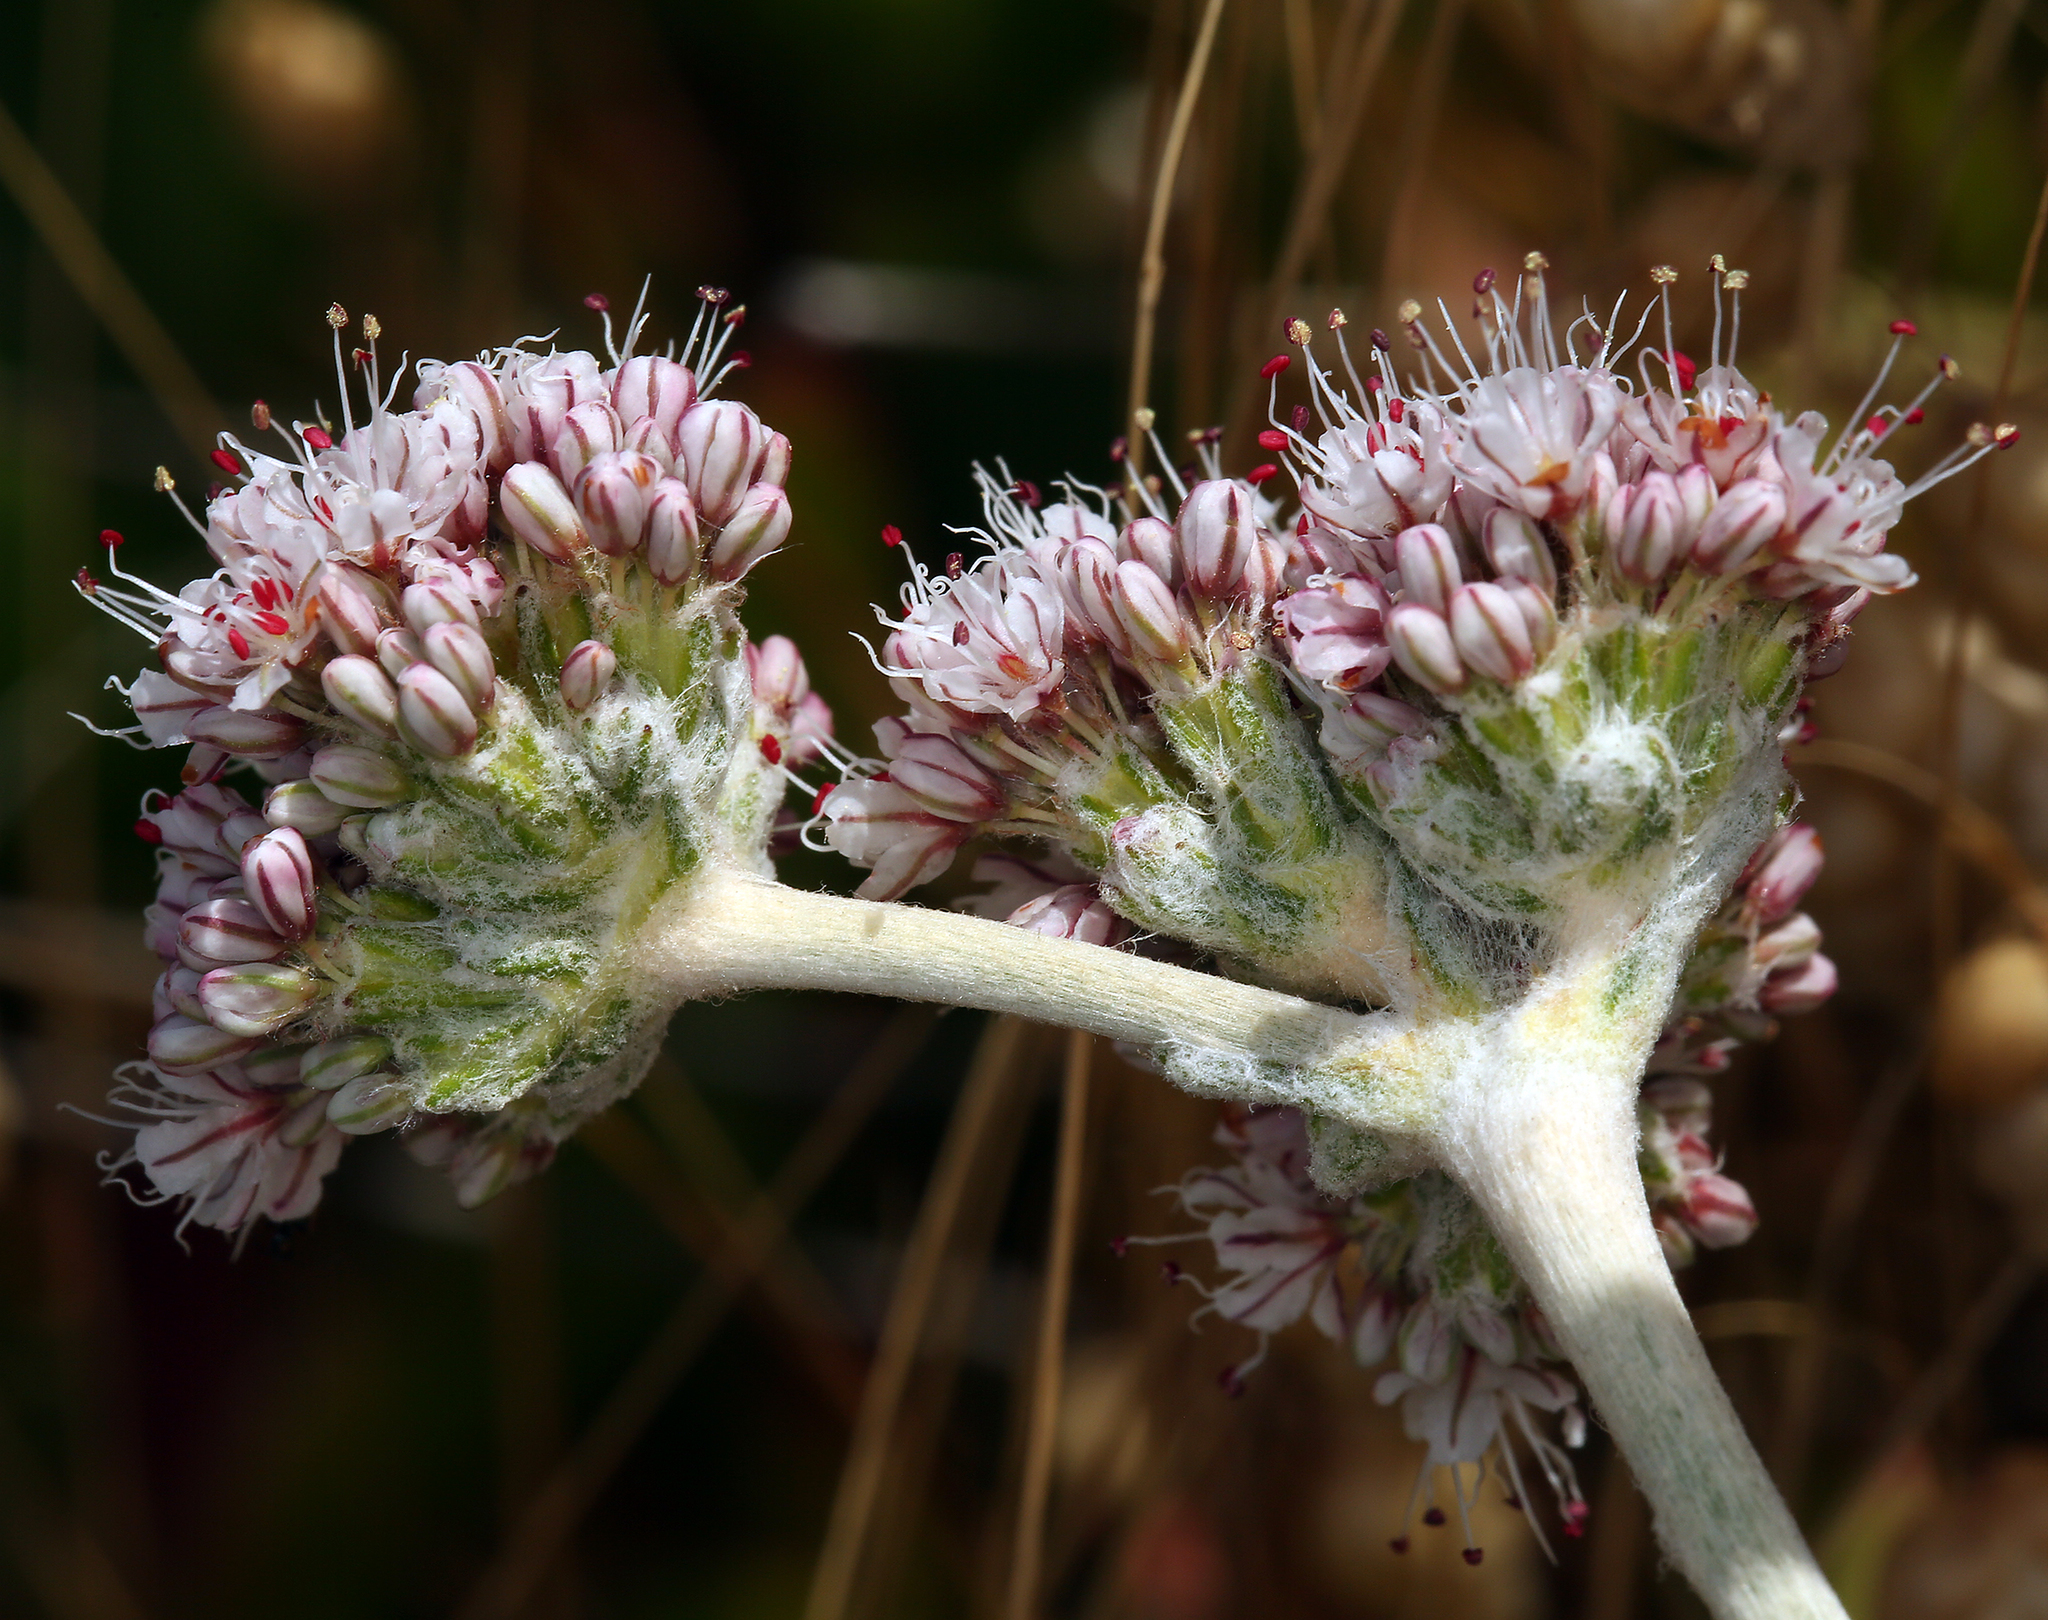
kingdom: Plantae
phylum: Tracheophyta
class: Magnoliopsida
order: Caryophyllales
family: Polygonaceae
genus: Eriogonum
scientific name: Eriogonum latifolium
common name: Seaside wild buckwheat
